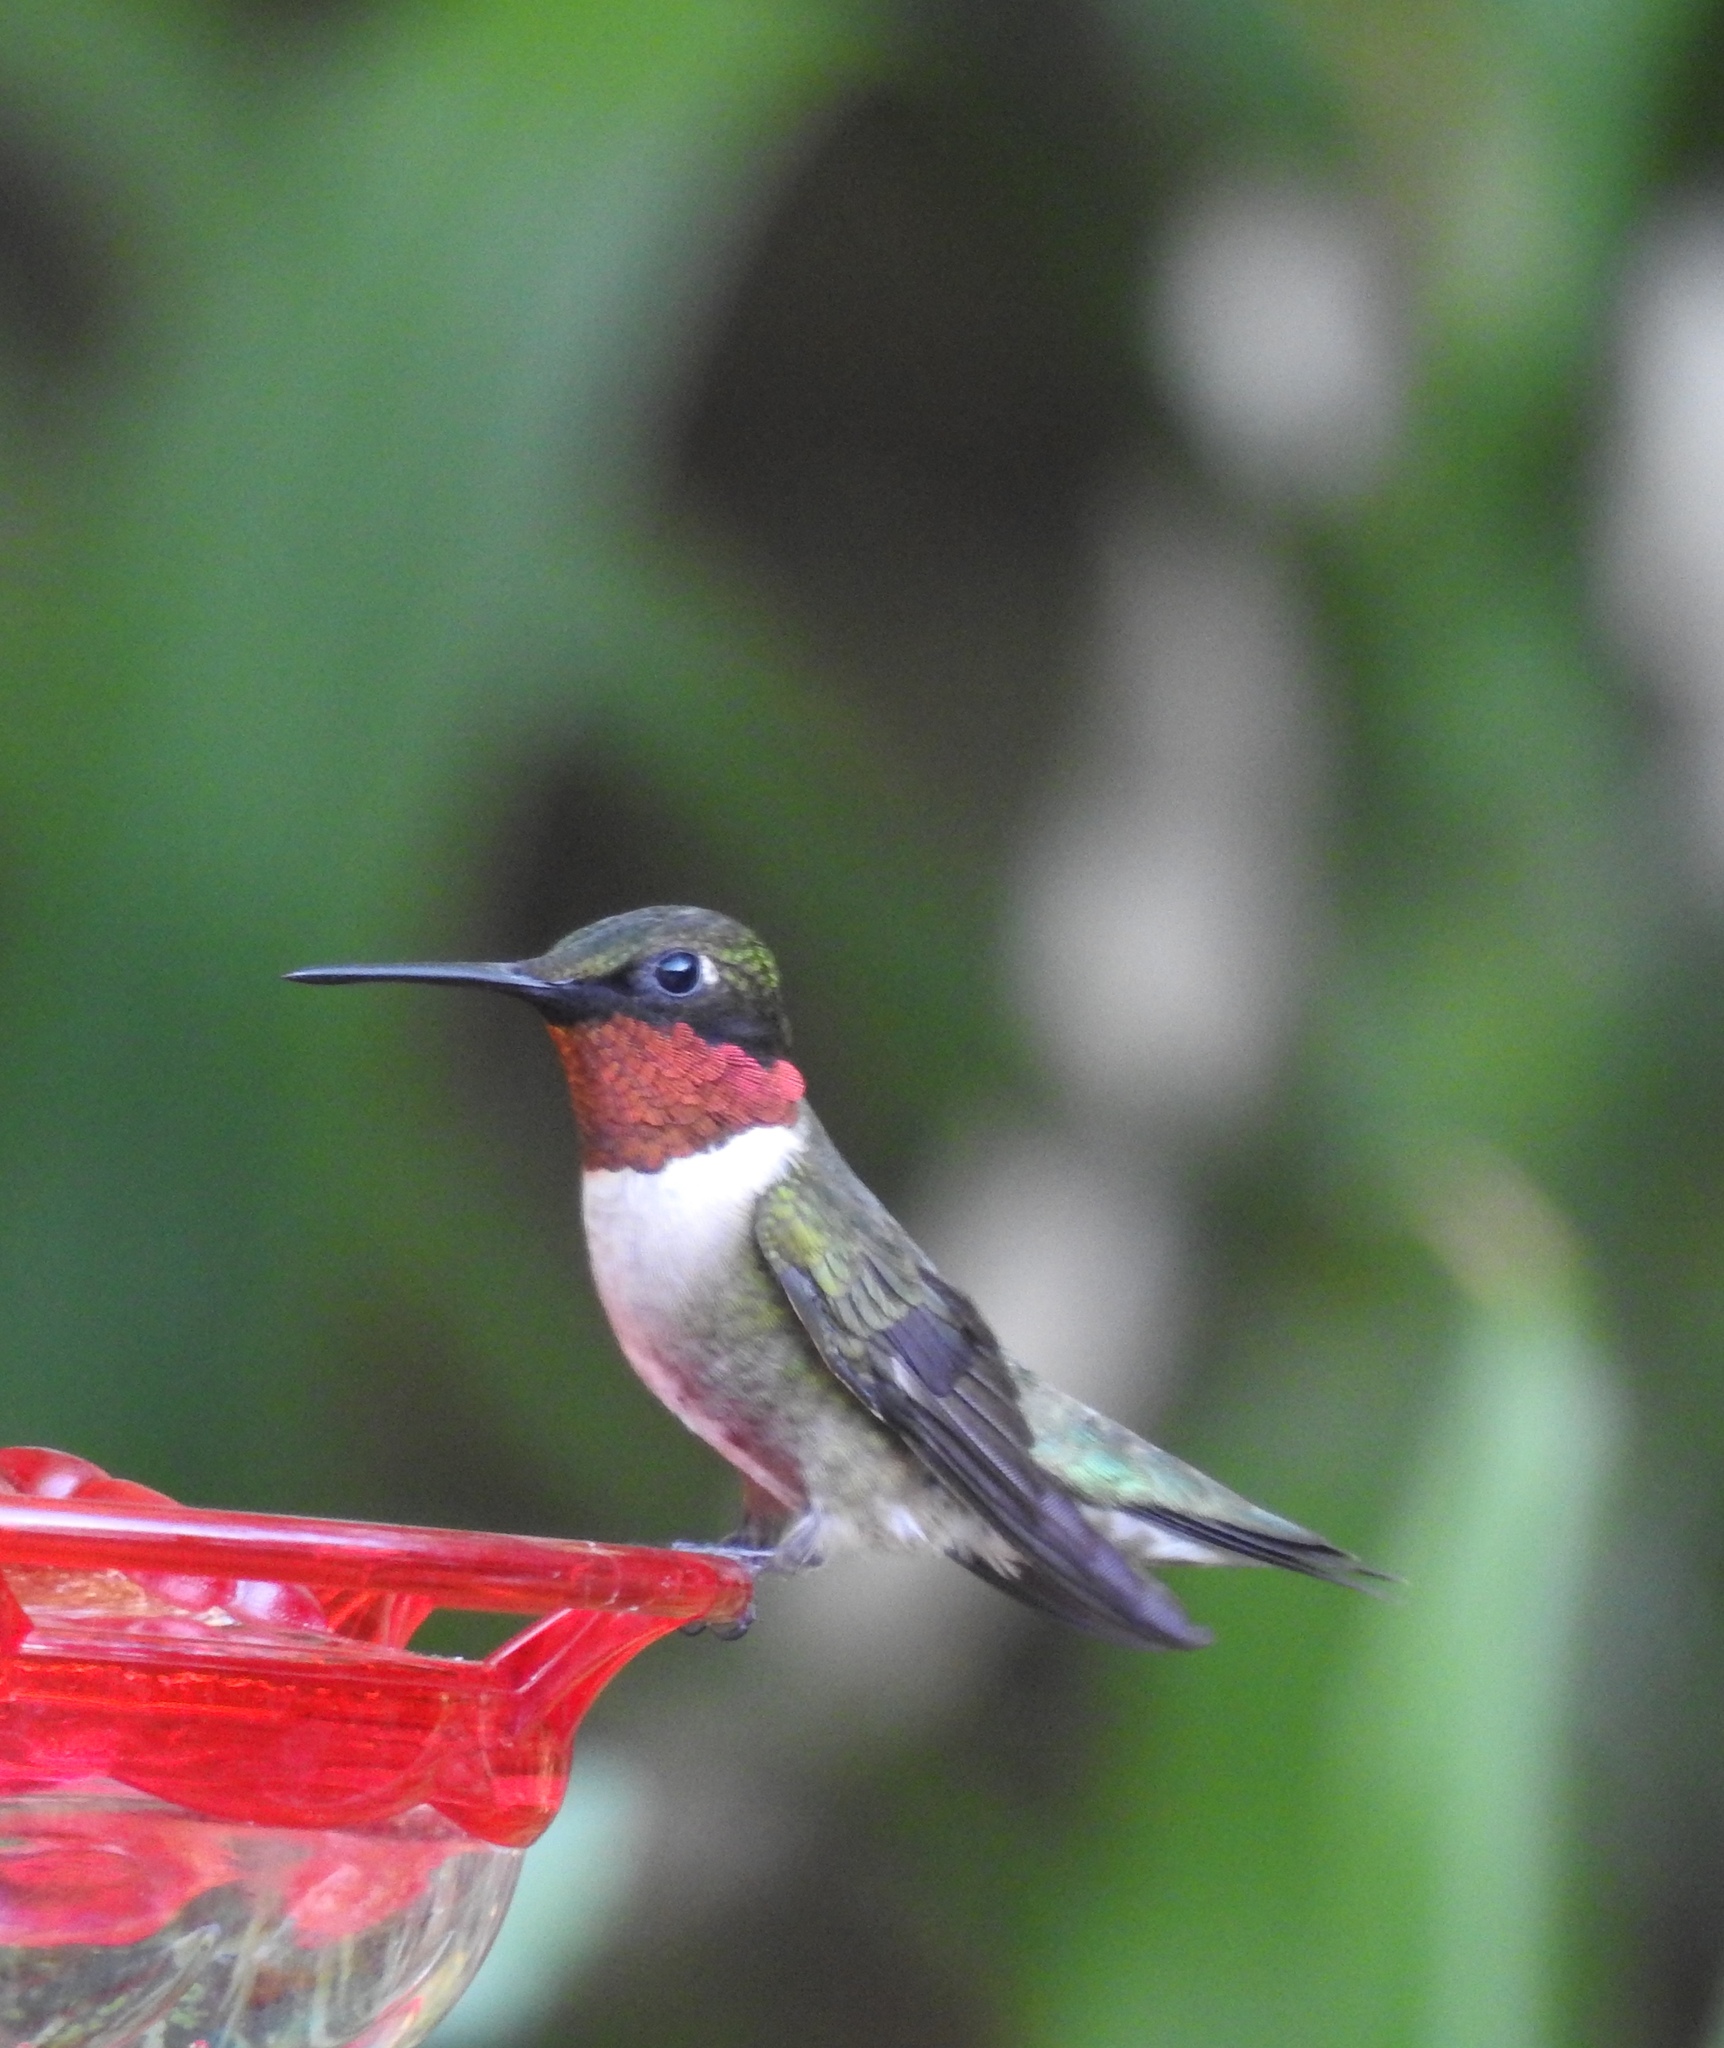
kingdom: Animalia
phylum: Chordata
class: Aves
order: Apodiformes
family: Trochilidae
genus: Archilochus
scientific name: Archilochus colubris
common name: Ruby-throated hummingbird
